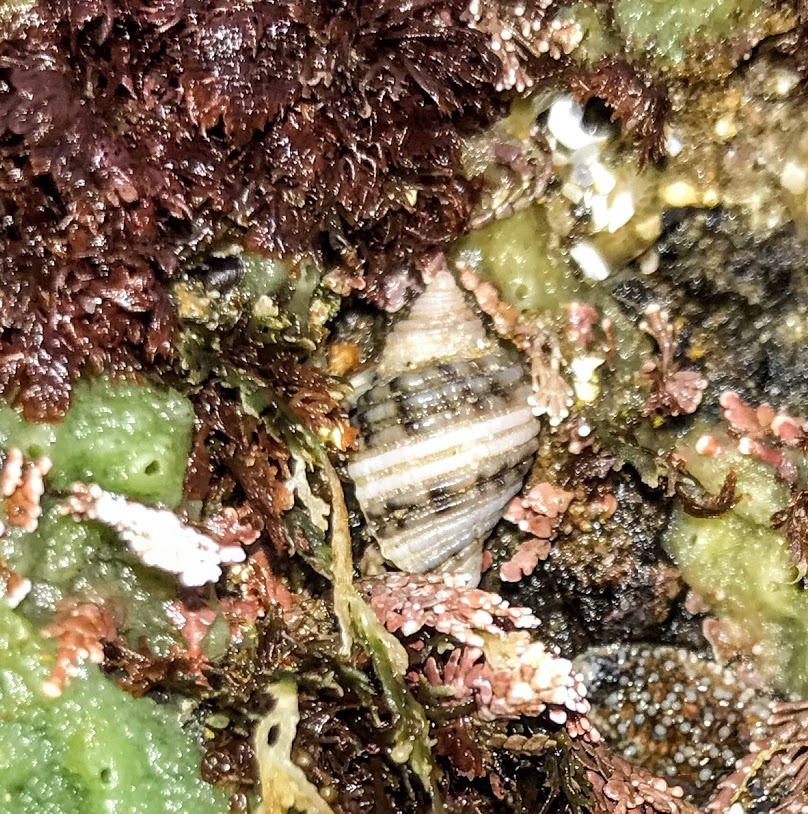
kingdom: Animalia
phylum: Mollusca
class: Gastropoda
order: Neogastropoda
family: Muricidae
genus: Nucella
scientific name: Nucella canaliculata
